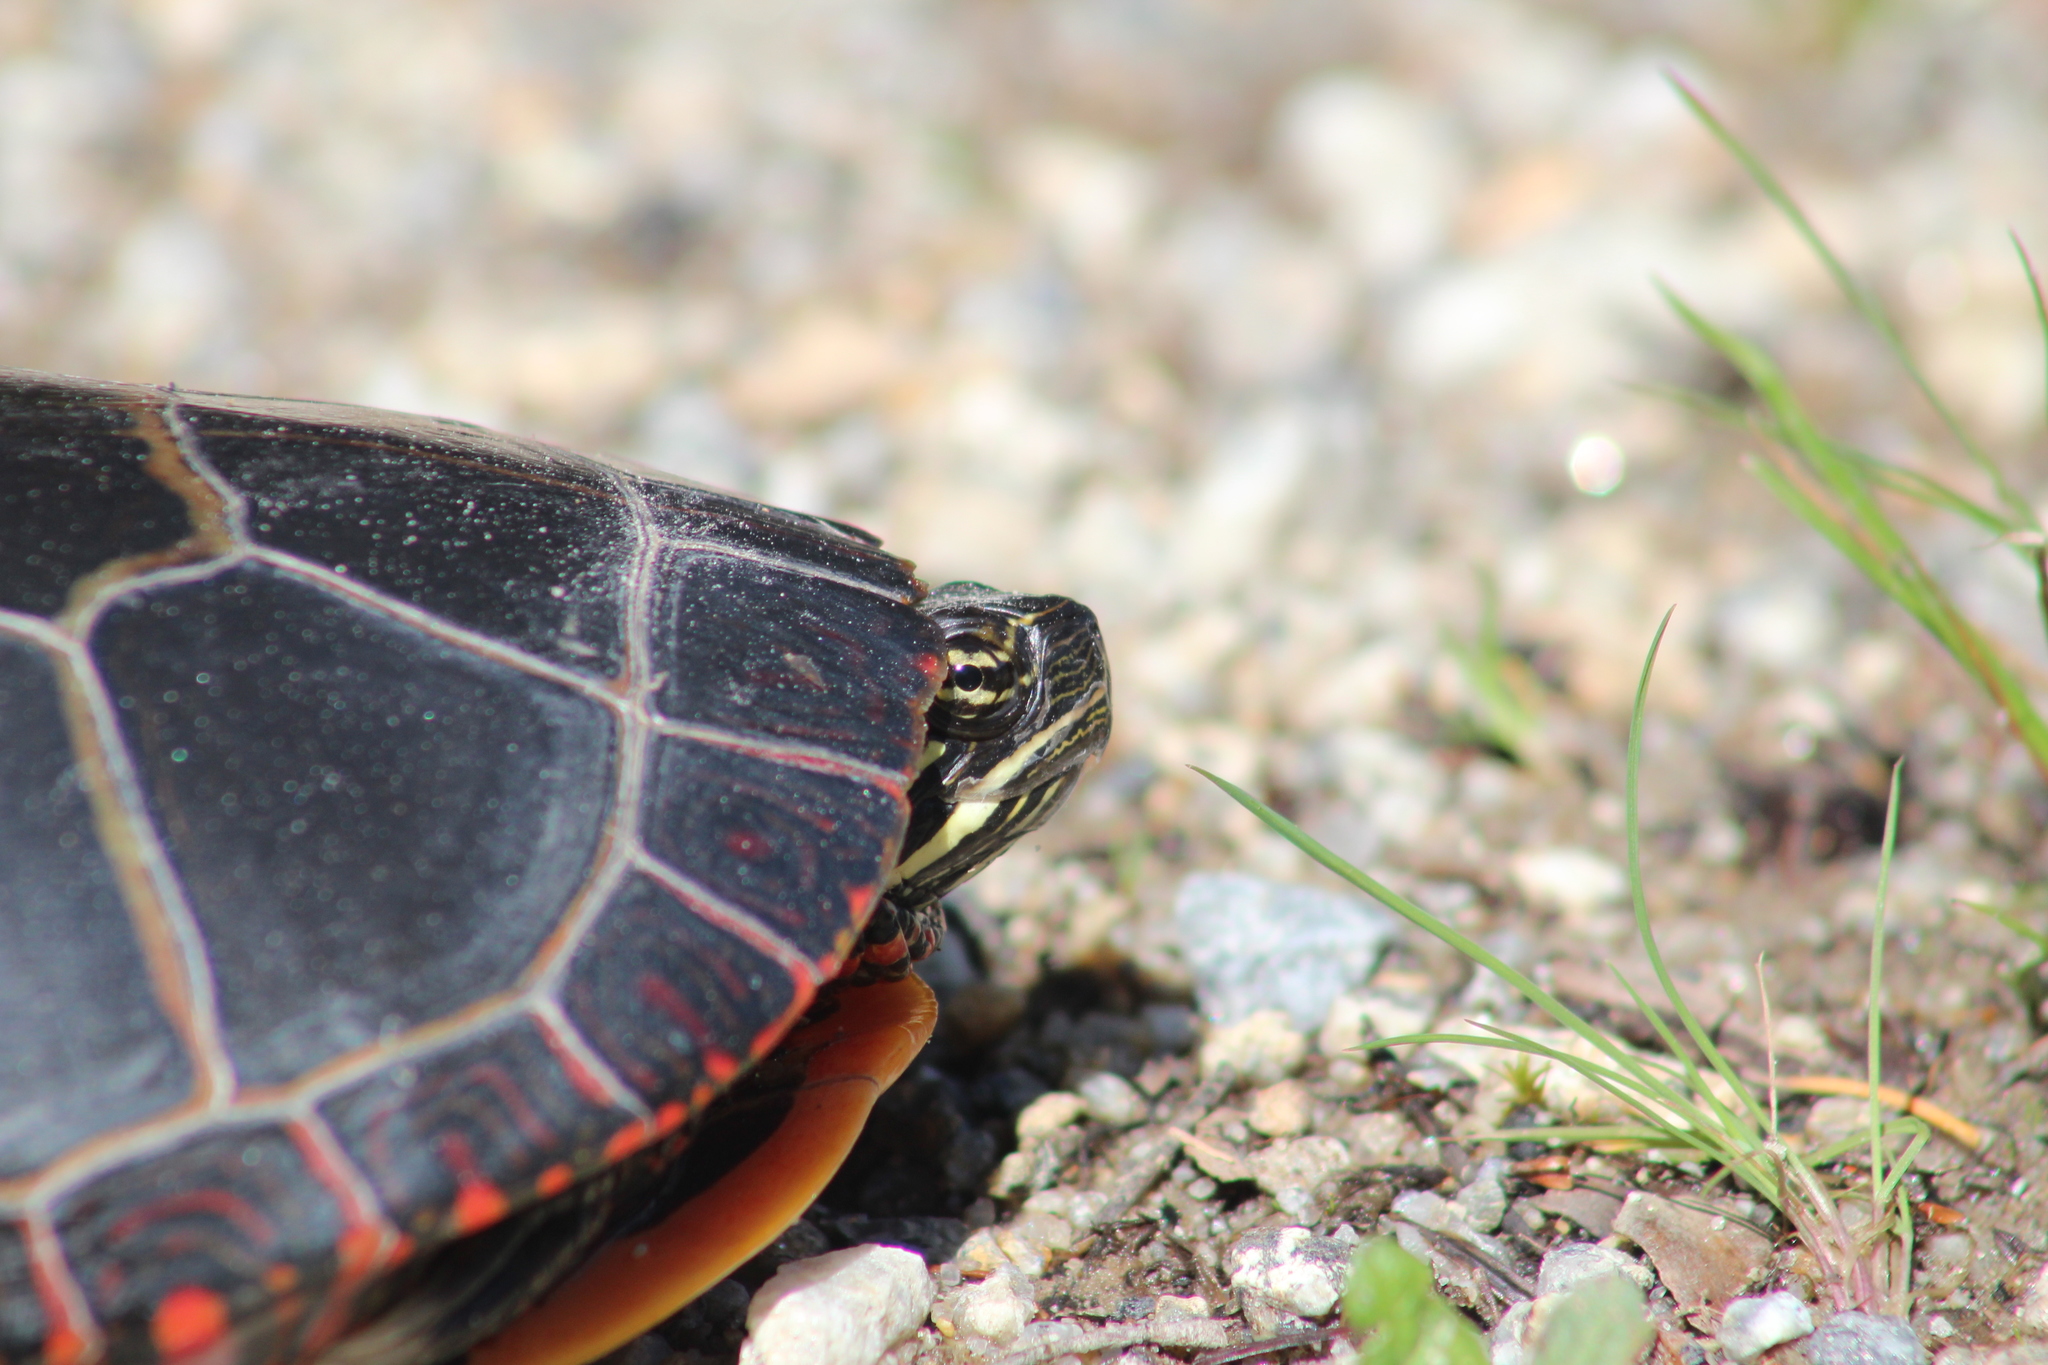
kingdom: Animalia
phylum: Chordata
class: Testudines
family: Emydidae
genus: Chrysemys
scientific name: Chrysemys picta
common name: Painted turtle
